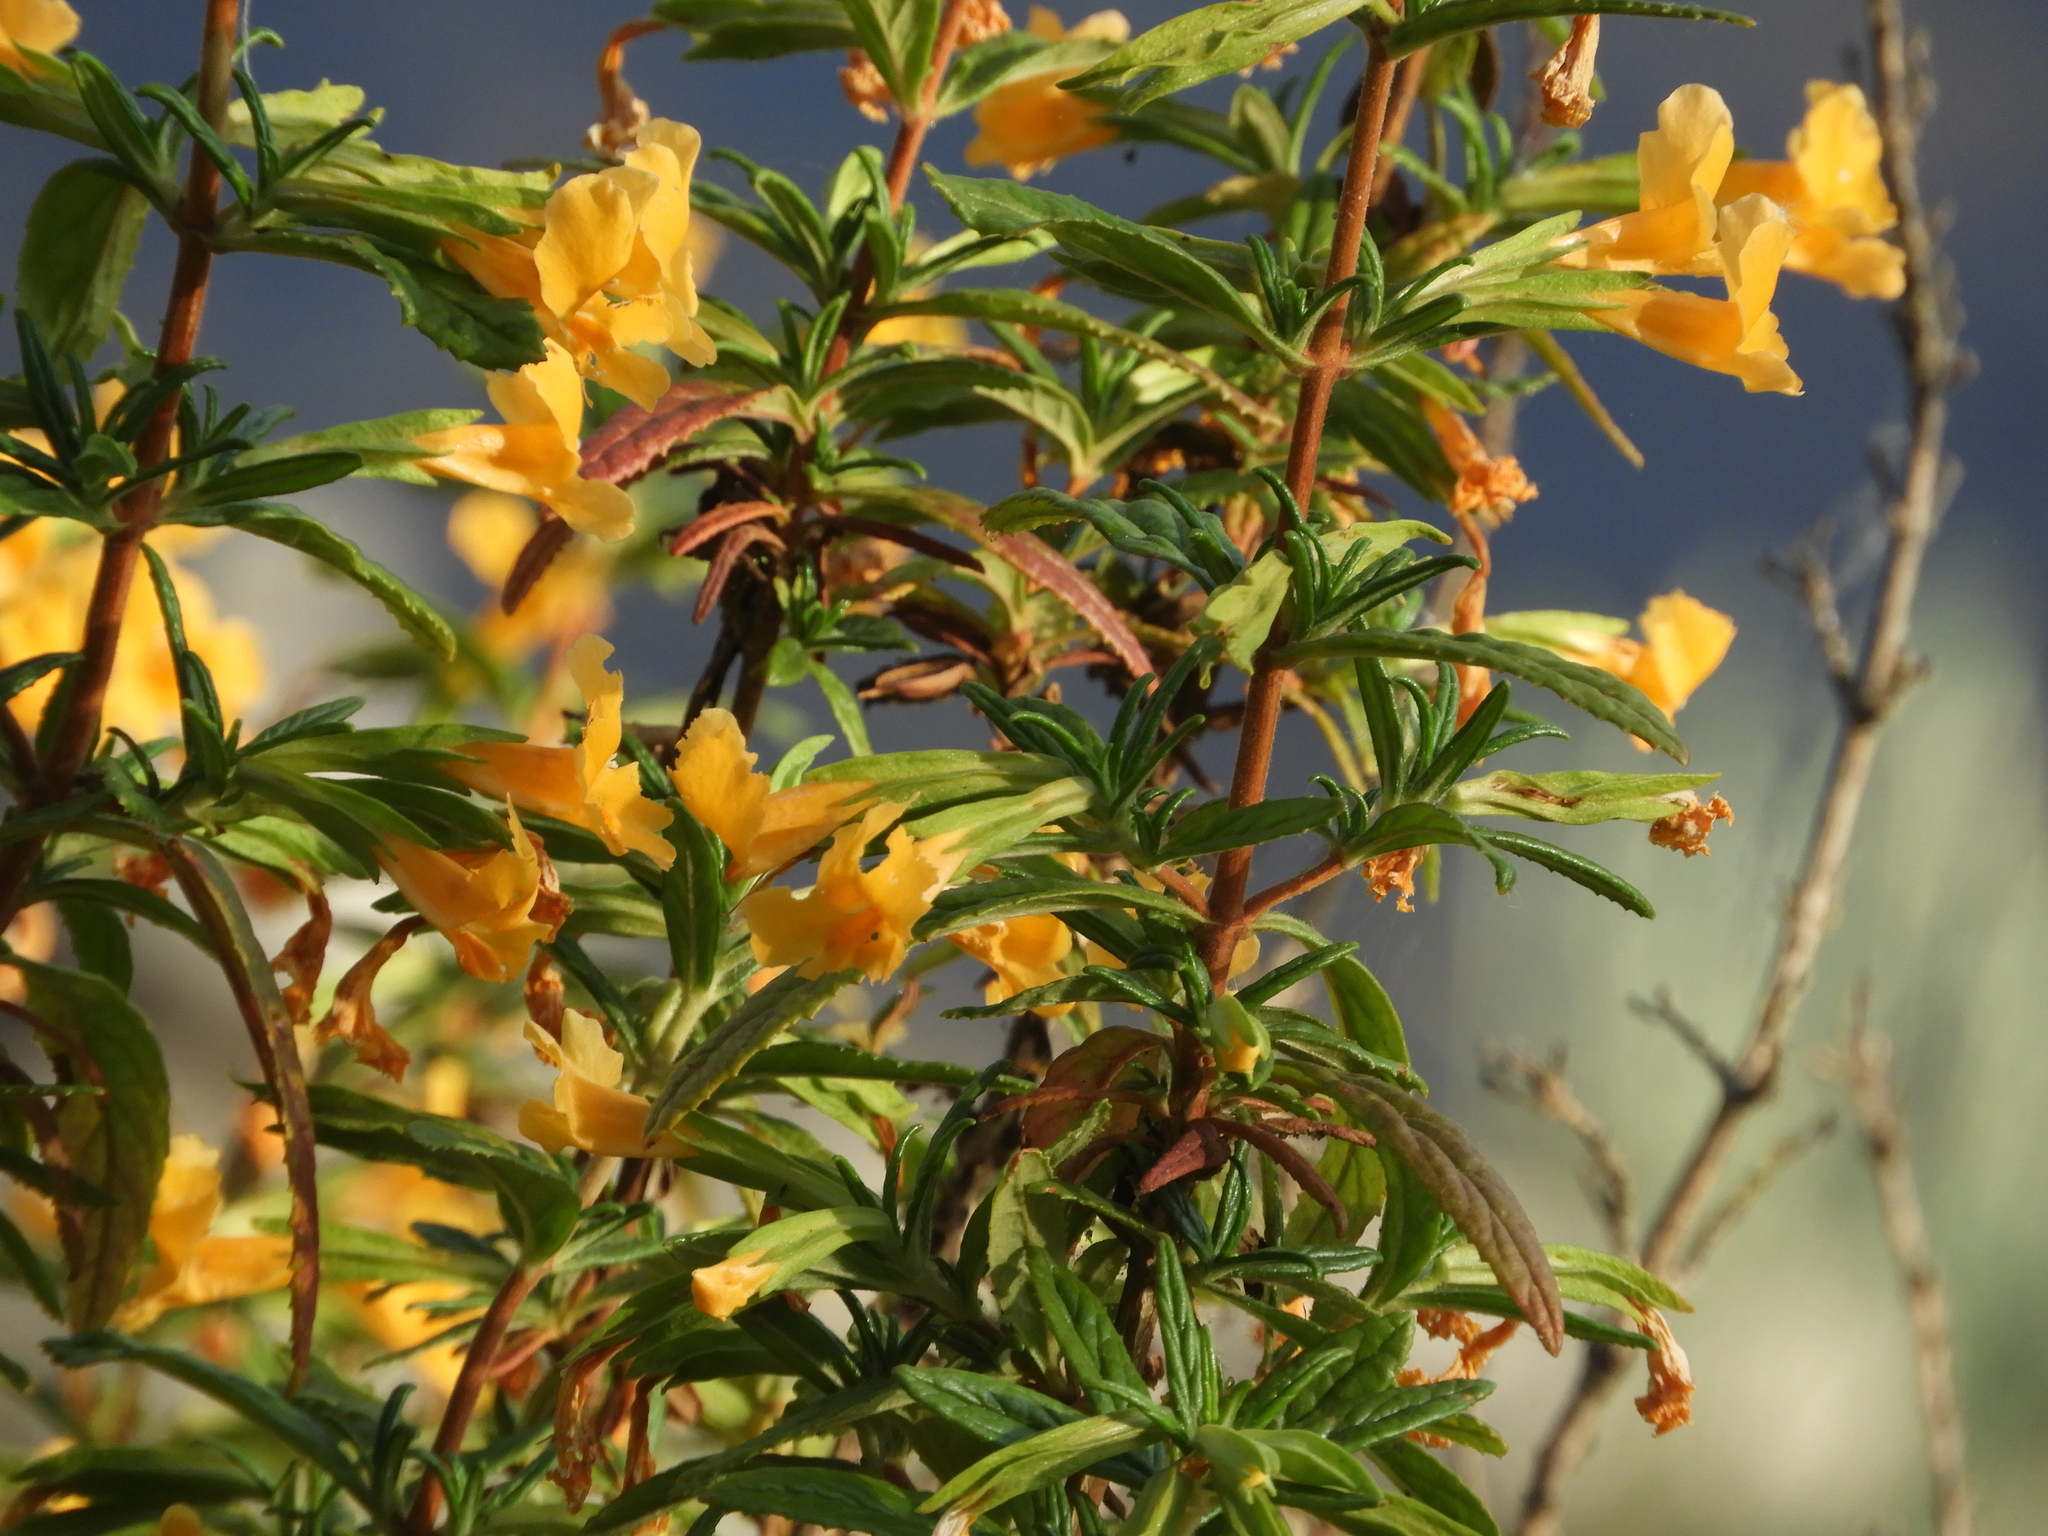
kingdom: Plantae
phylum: Tracheophyta
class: Magnoliopsida
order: Lamiales
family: Phrymaceae
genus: Diplacus
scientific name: Diplacus aurantiacus
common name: Bush monkey-flower
